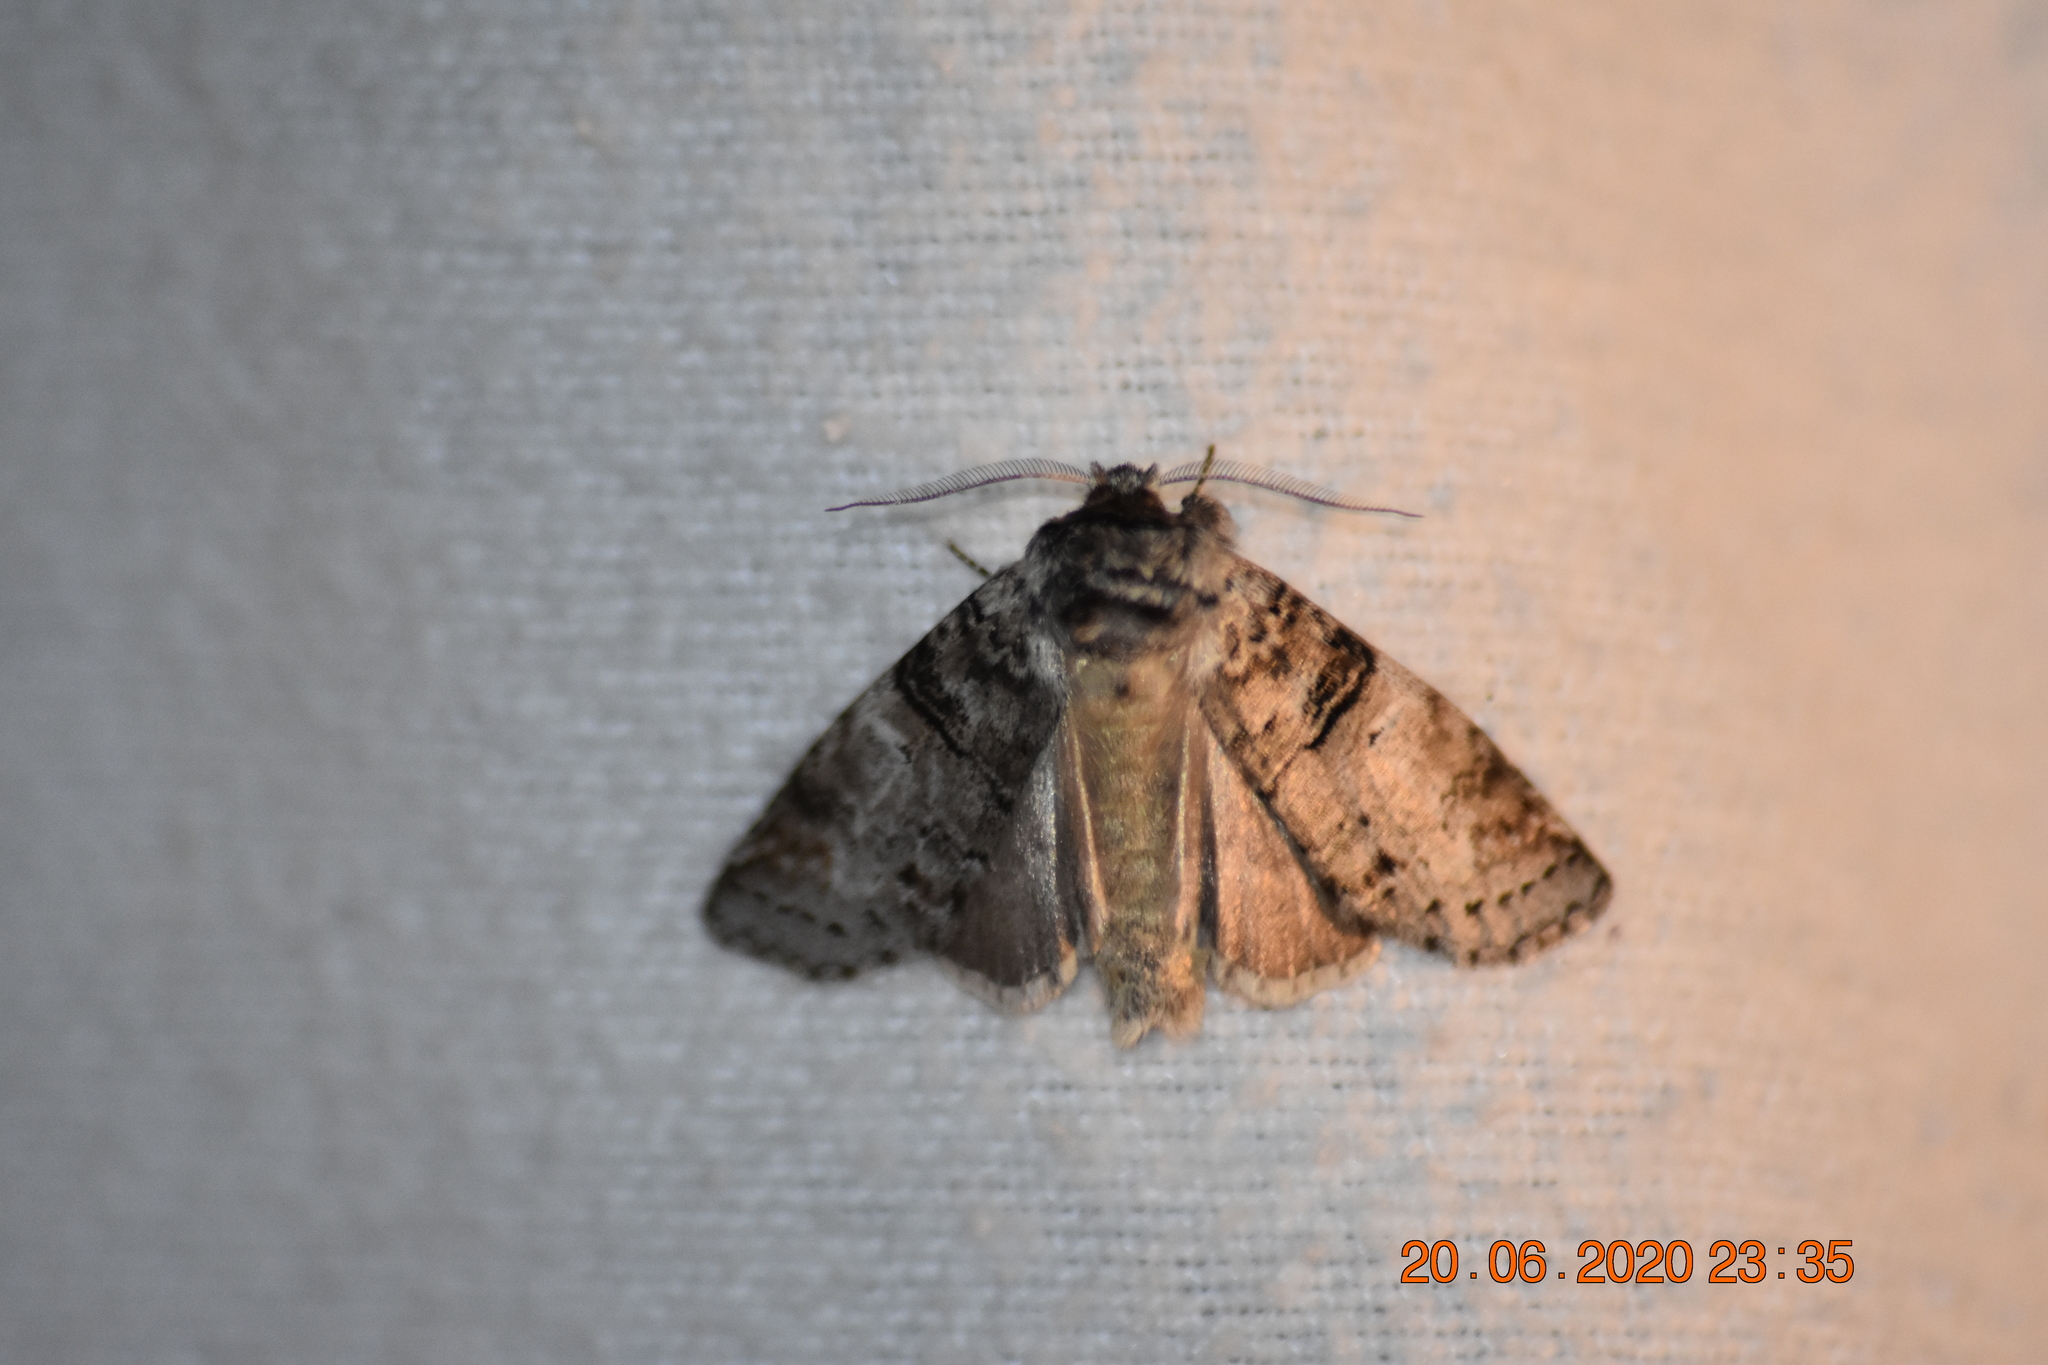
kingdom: Animalia
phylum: Arthropoda
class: Insecta
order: Lepidoptera
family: Notodontidae
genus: Ellida
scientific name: Ellida caniplaga
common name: Linden prominent
